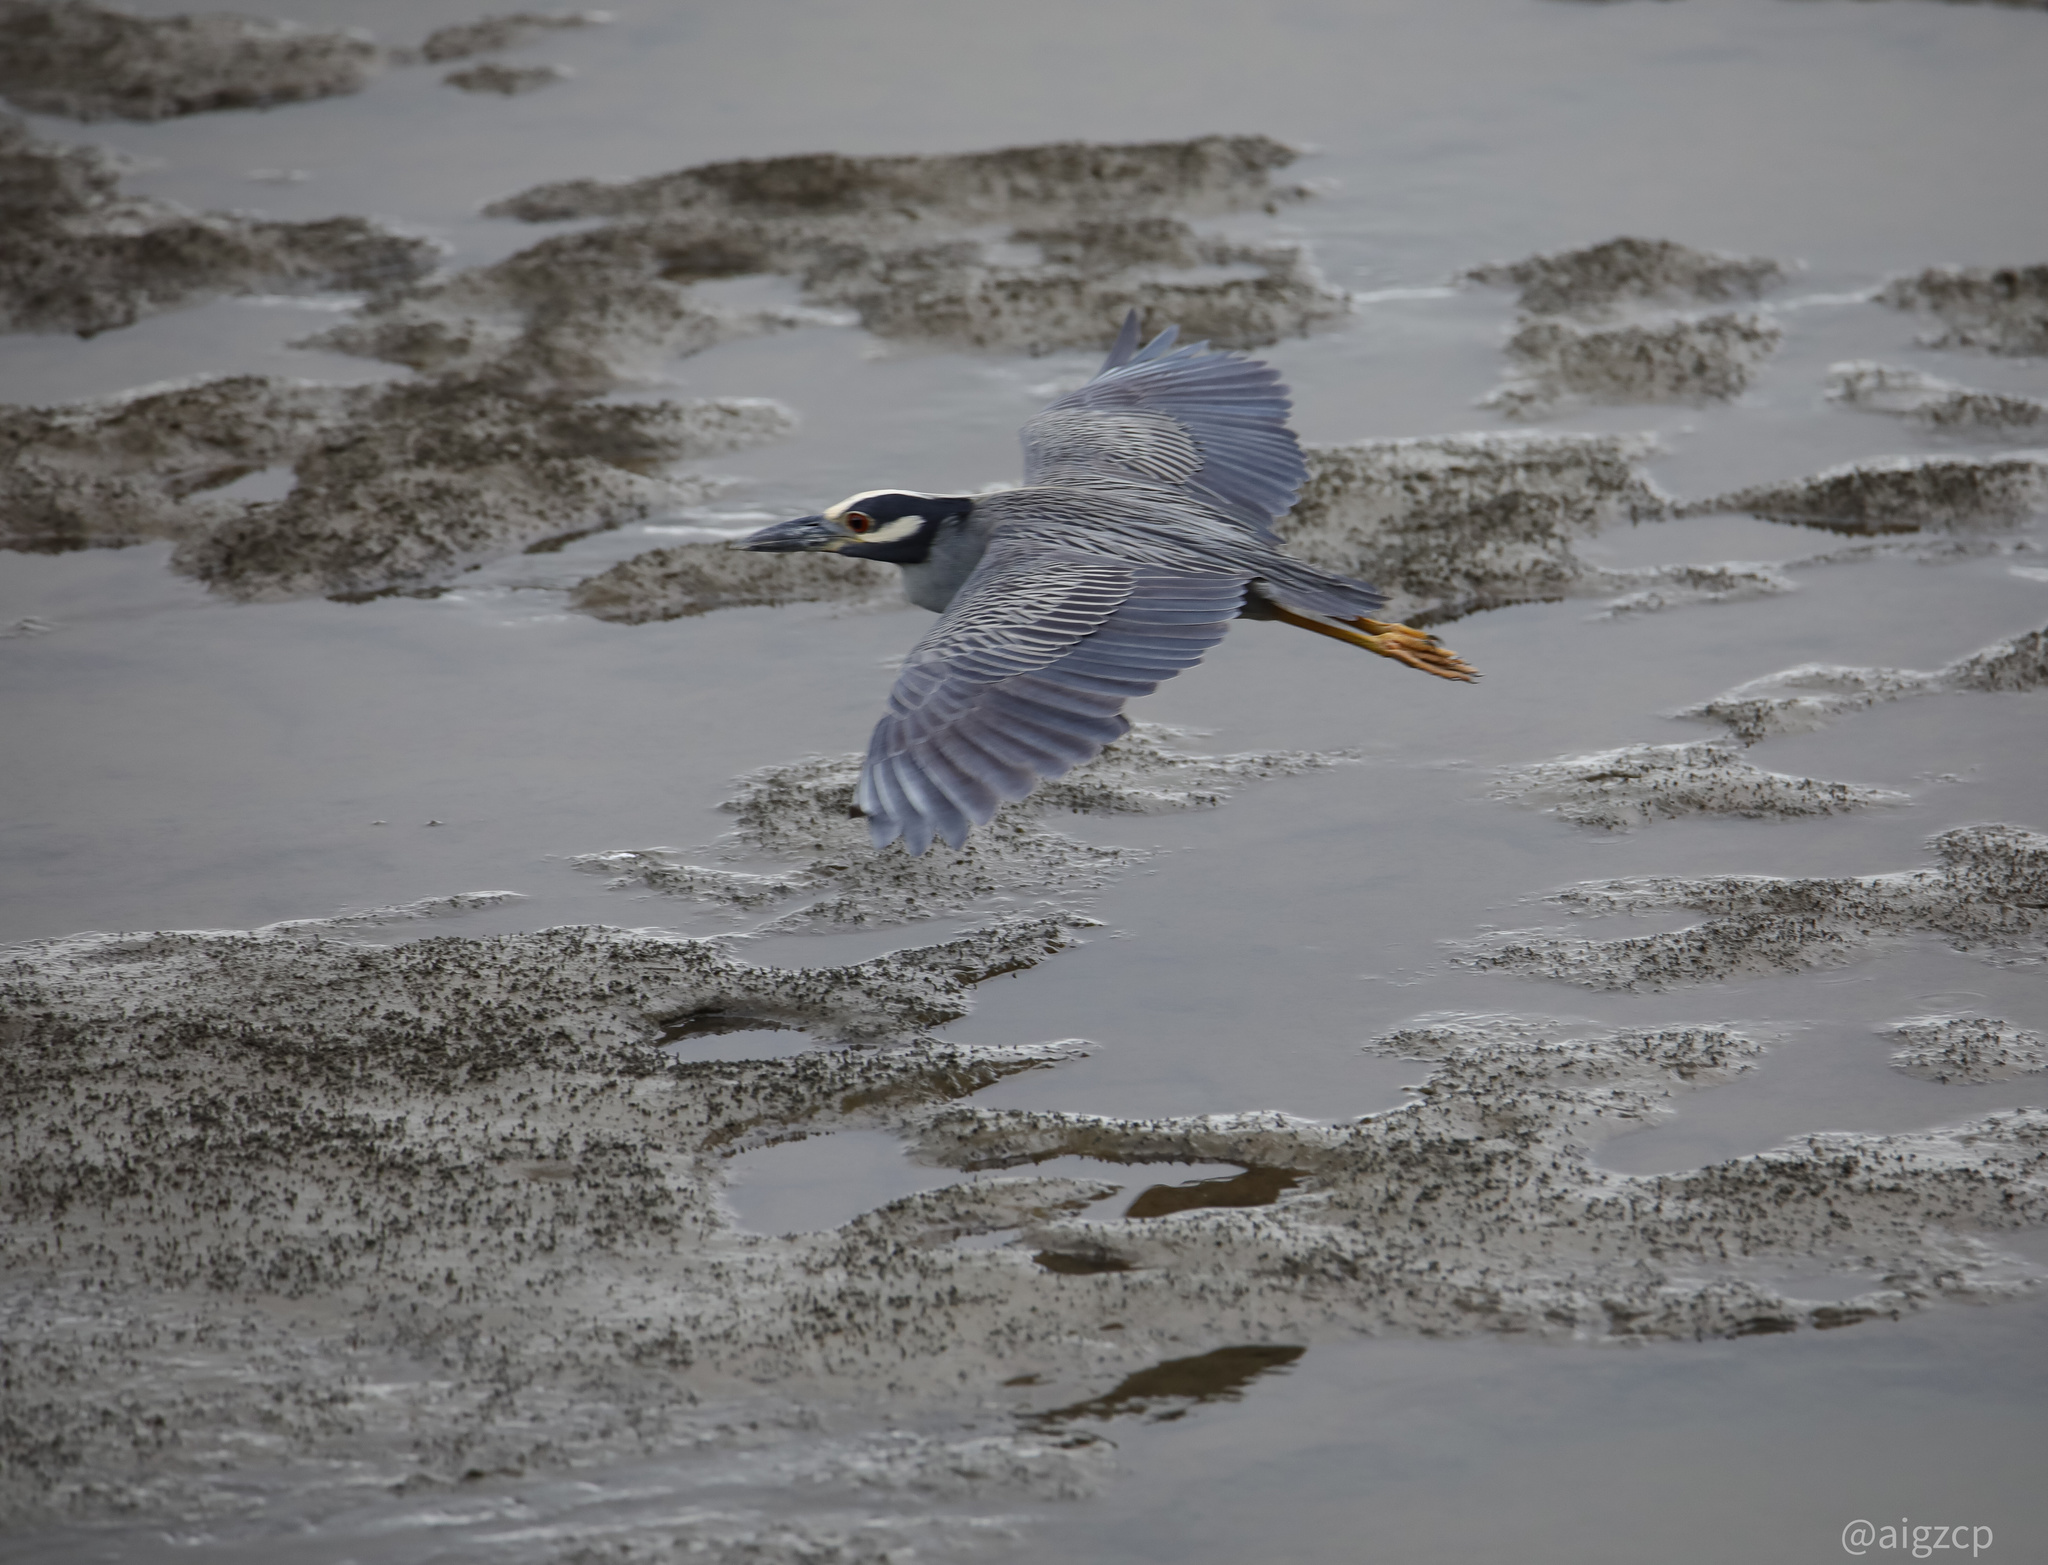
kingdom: Animalia
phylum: Chordata
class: Aves
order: Pelecaniformes
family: Ardeidae
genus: Nyctanassa
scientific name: Nyctanassa violacea
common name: Yellow-crowned night heron
